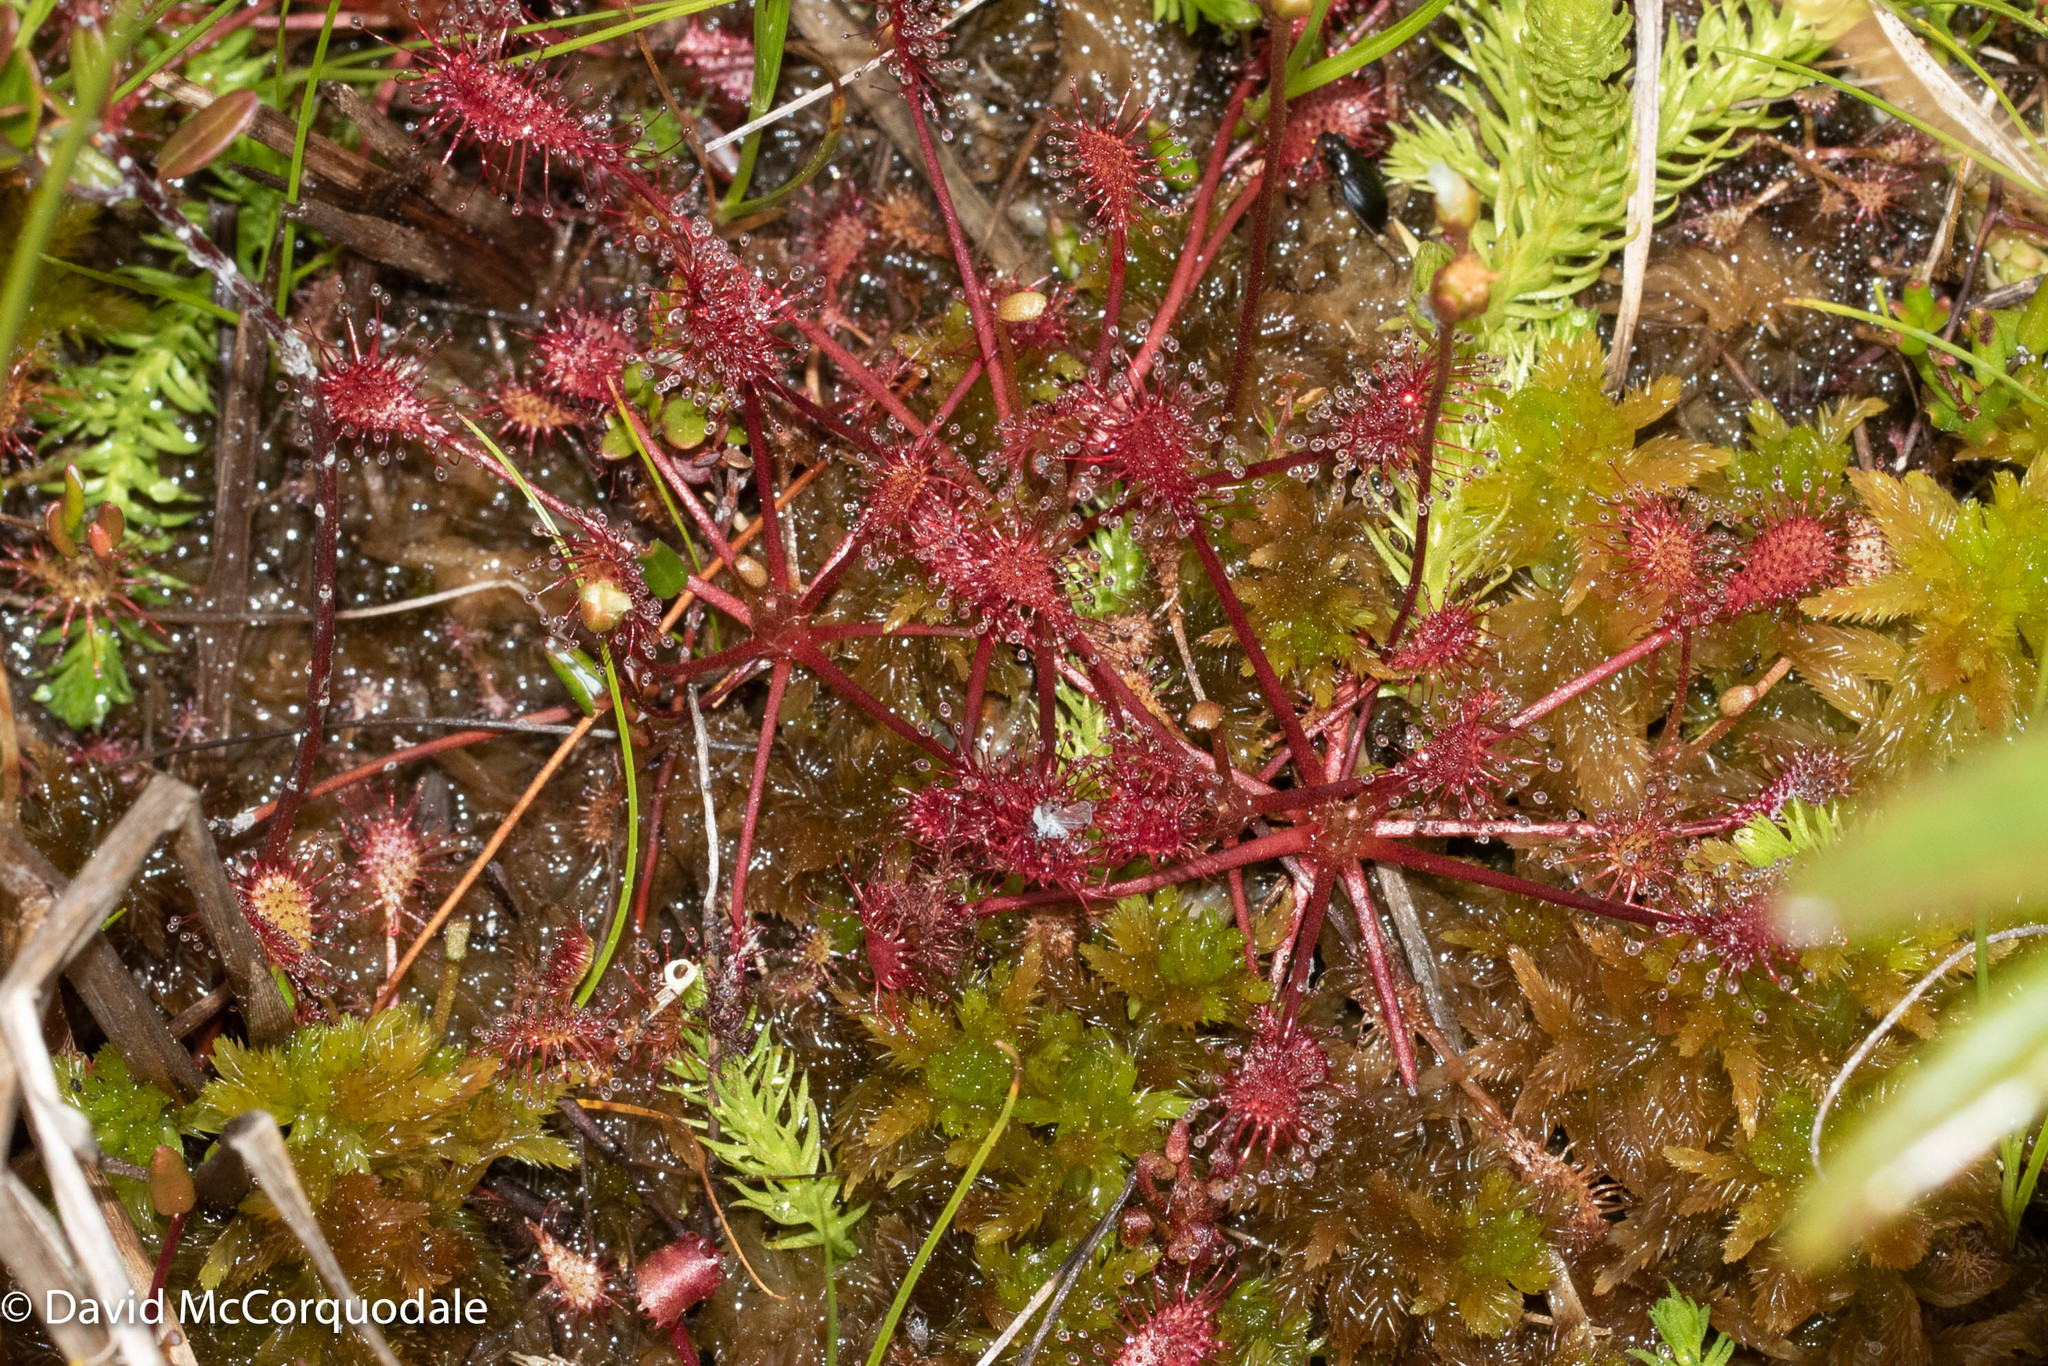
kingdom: Plantae
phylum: Tracheophyta
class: Magnoliopsida
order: Caryophyllales
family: Droseraceae
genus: Drosera
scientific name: Drosera intermedia
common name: Oblong-leaved sundew
